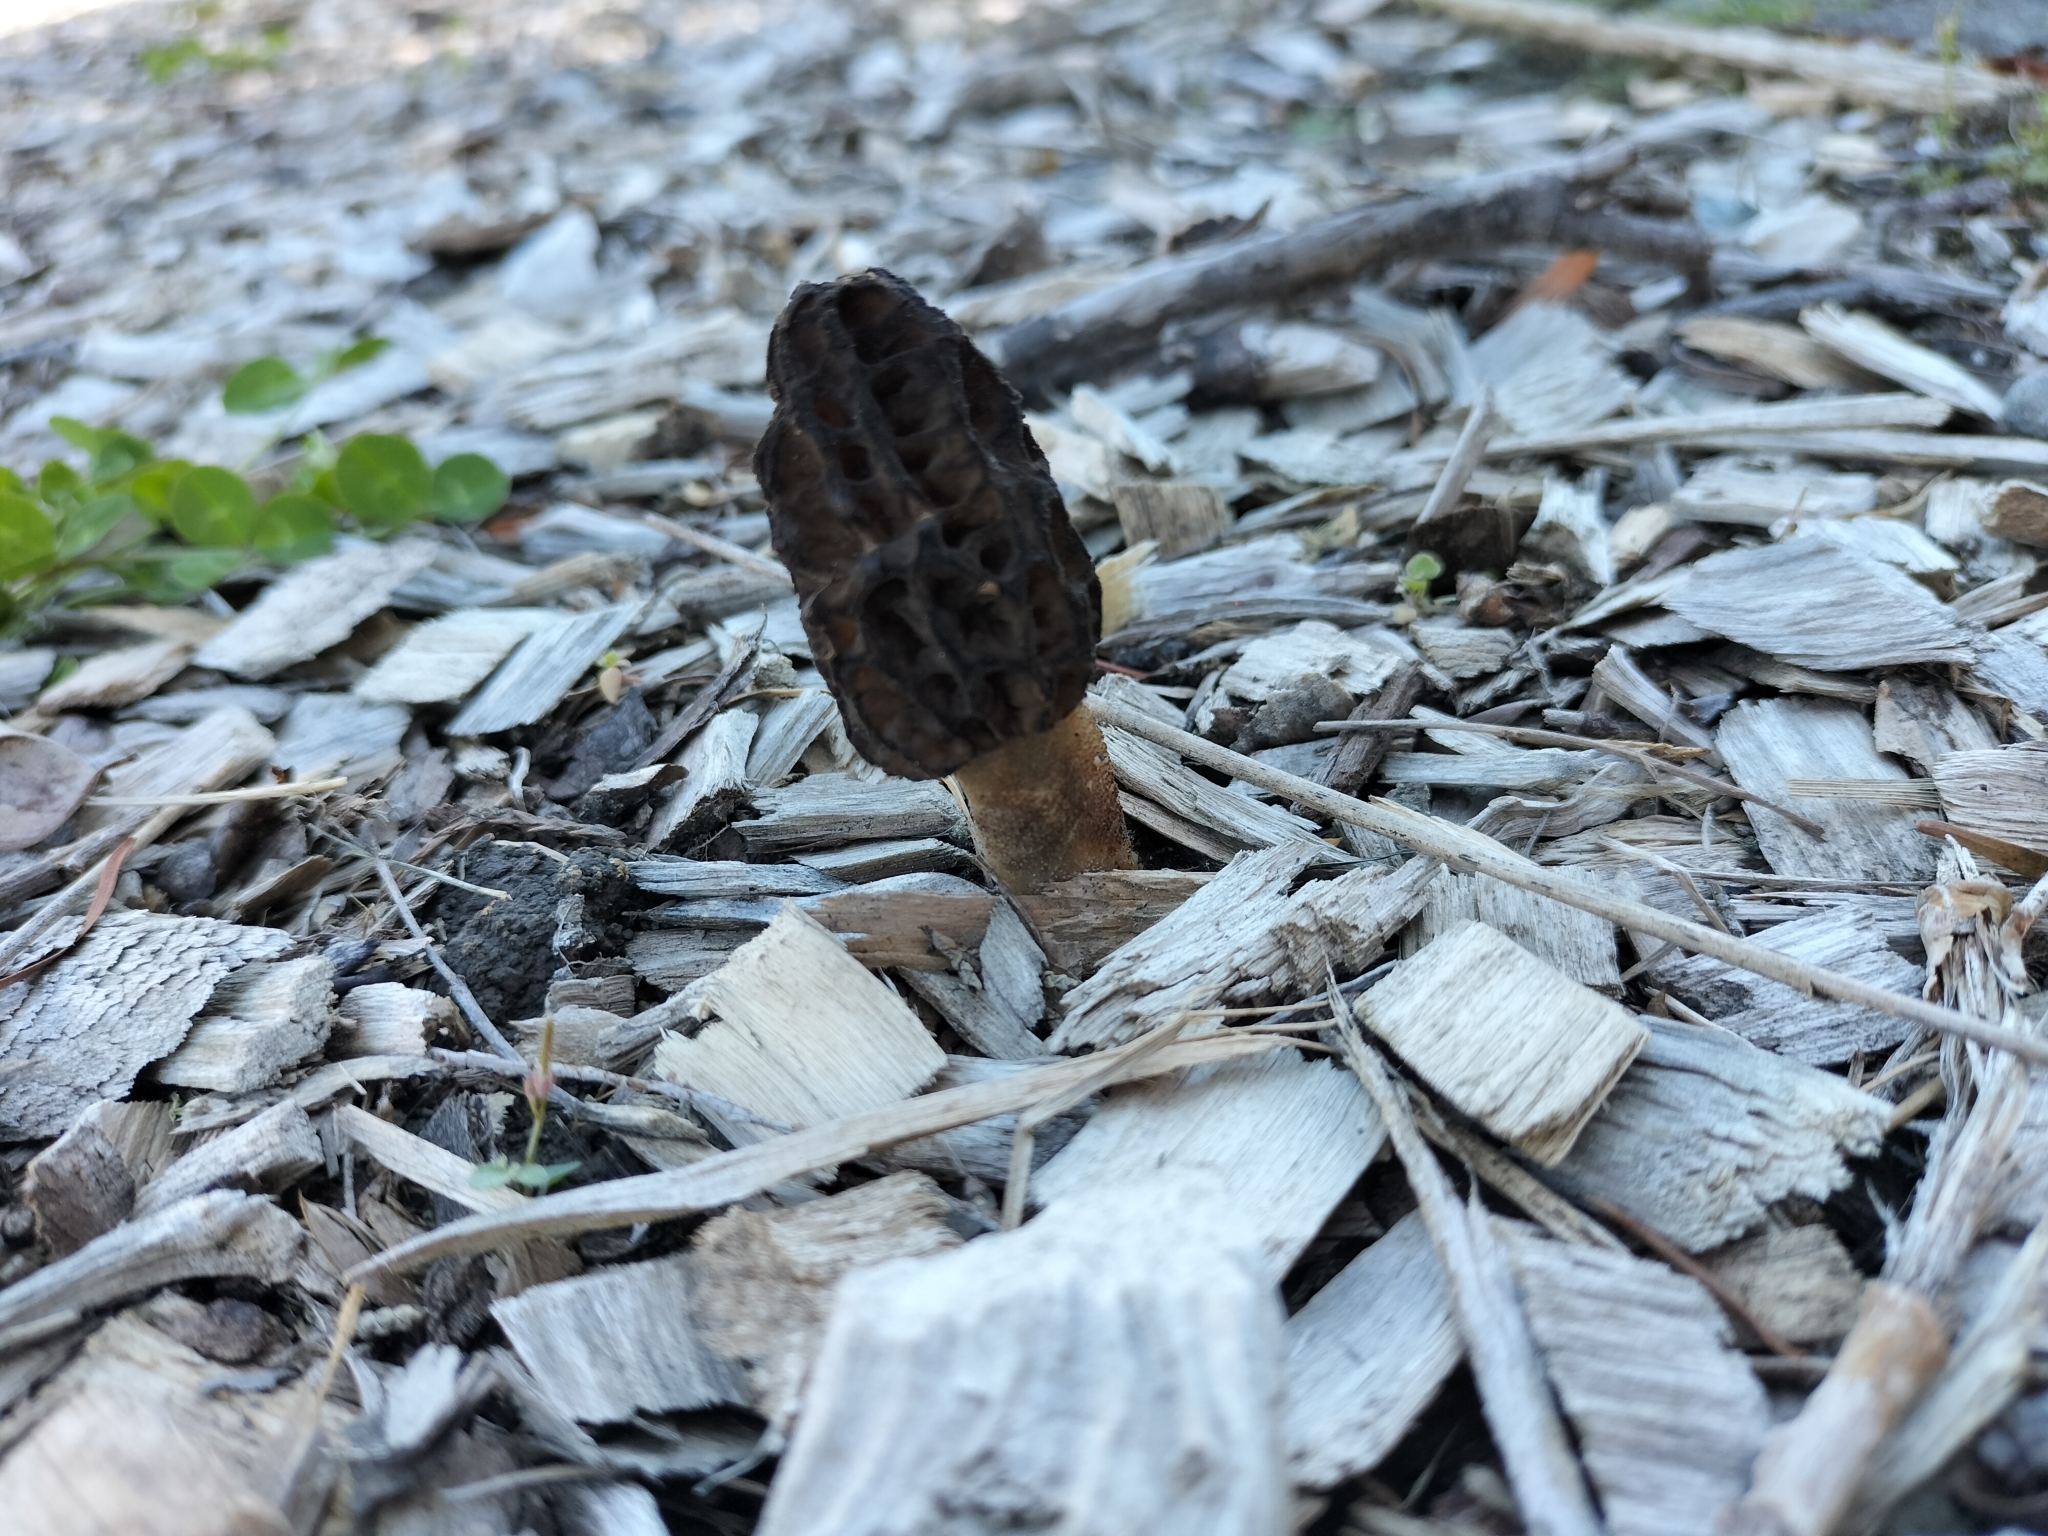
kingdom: Fungi
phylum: Ascomycota
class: Pezizomycetes
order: Pezizales
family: Morchellaceae
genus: Morchella
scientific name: Morchella importuna
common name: Landscaping black morel
